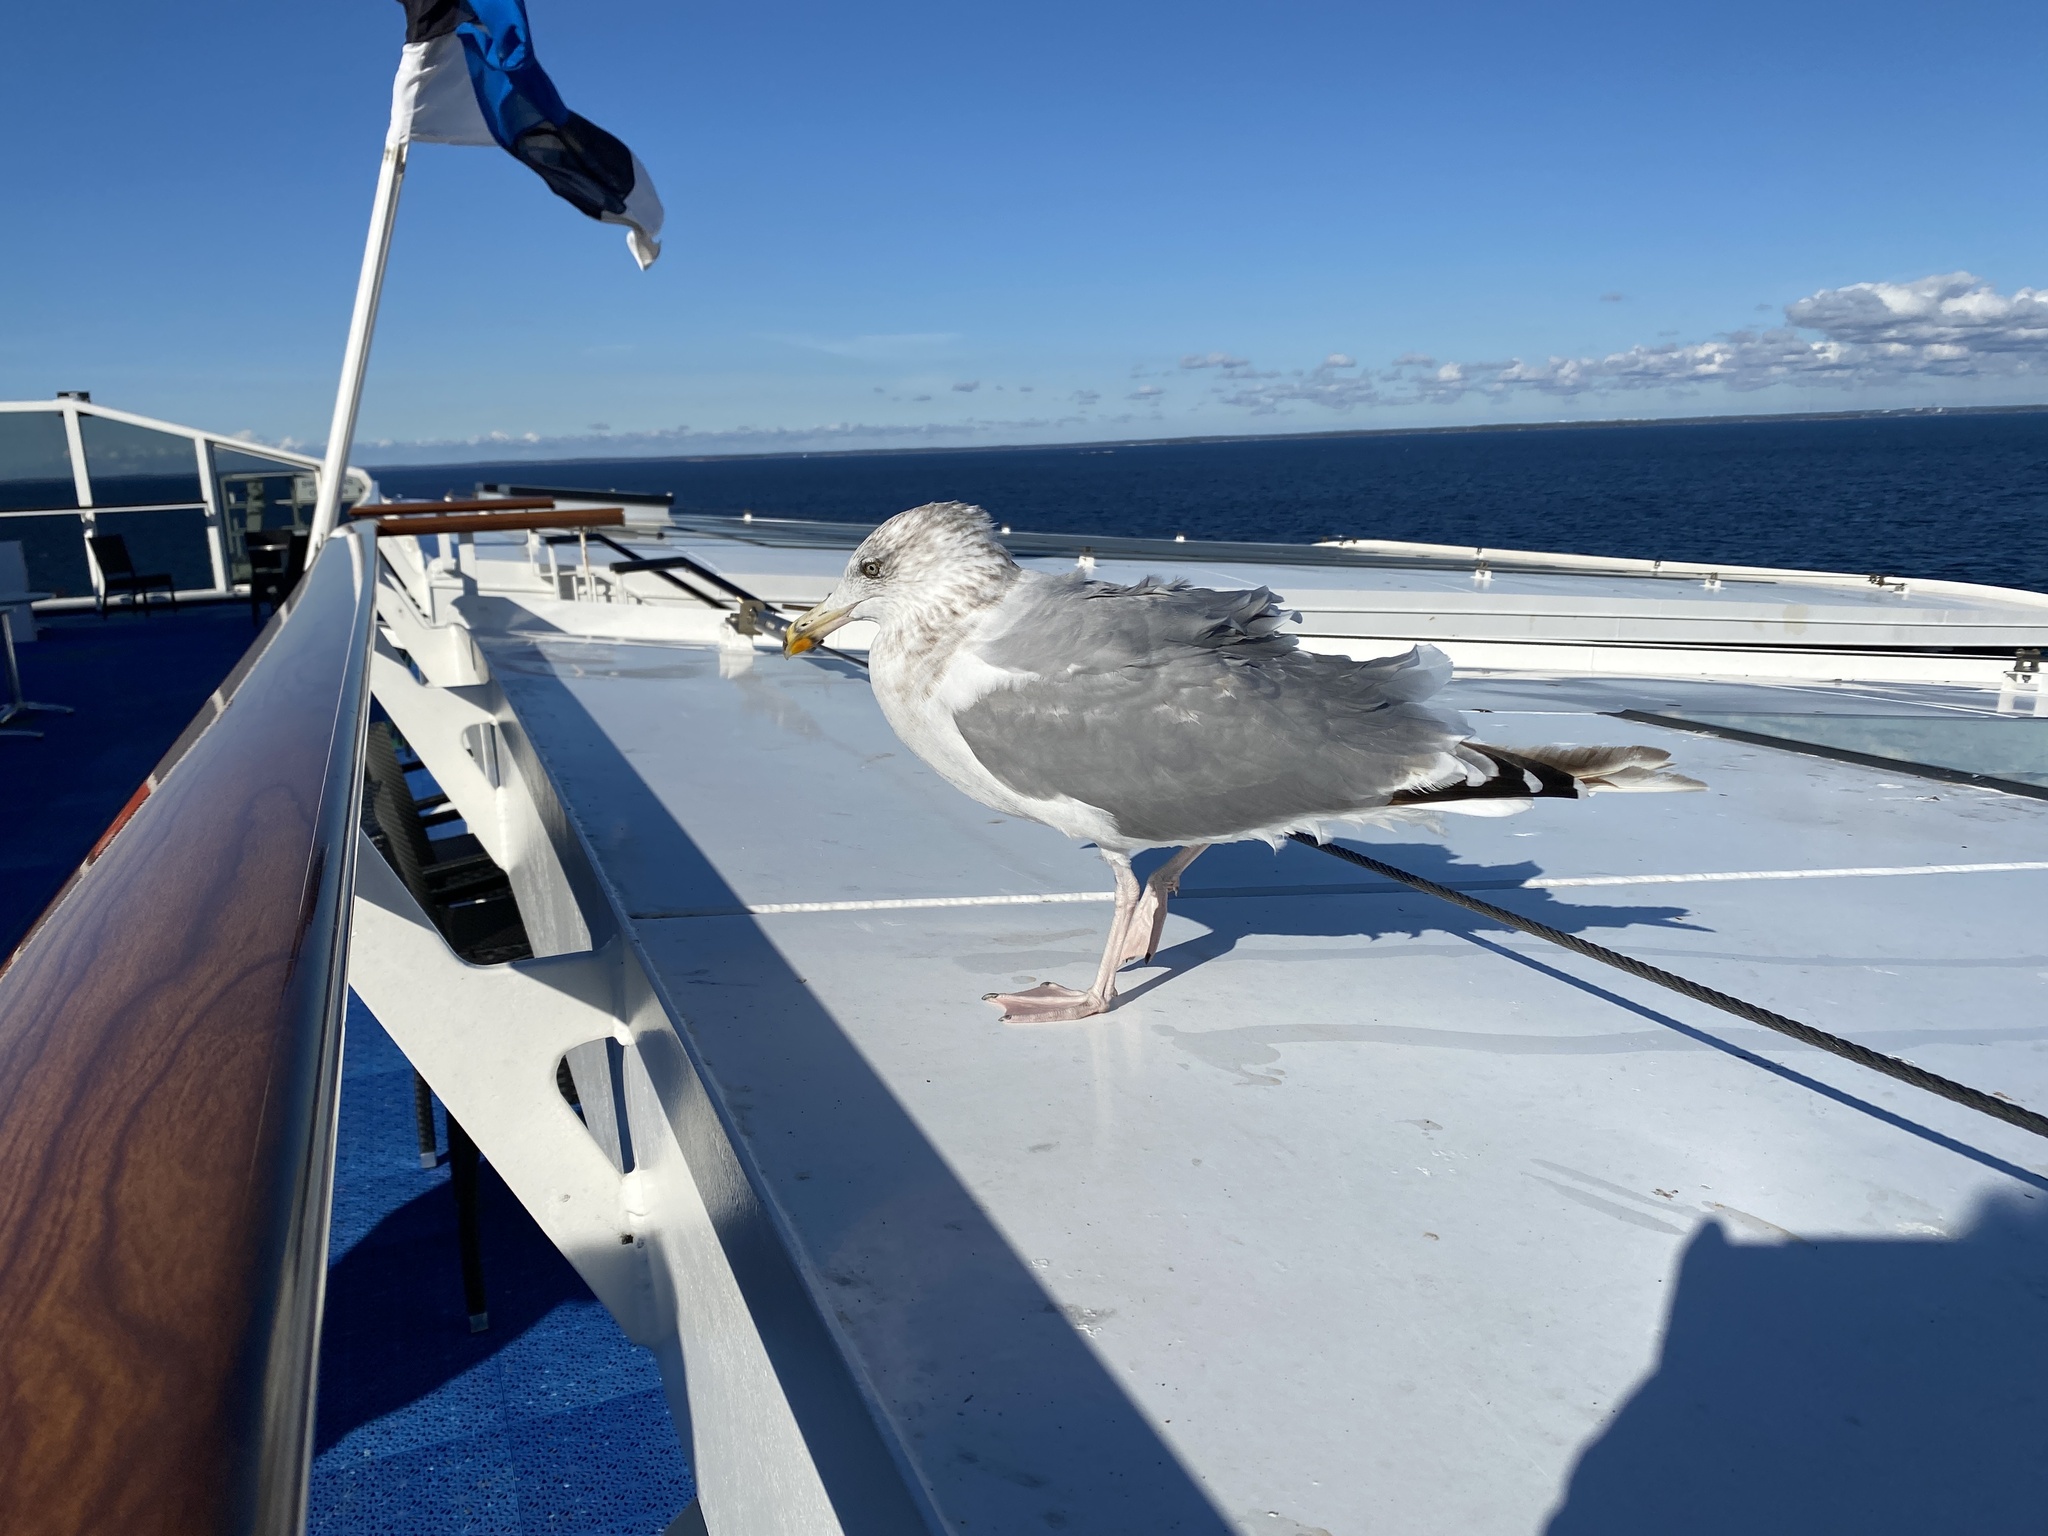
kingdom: Animalia
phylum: Chordata
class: Aves
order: Charadriiformes
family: Laridae
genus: Larus
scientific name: Larus argentatus
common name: Herring gull
